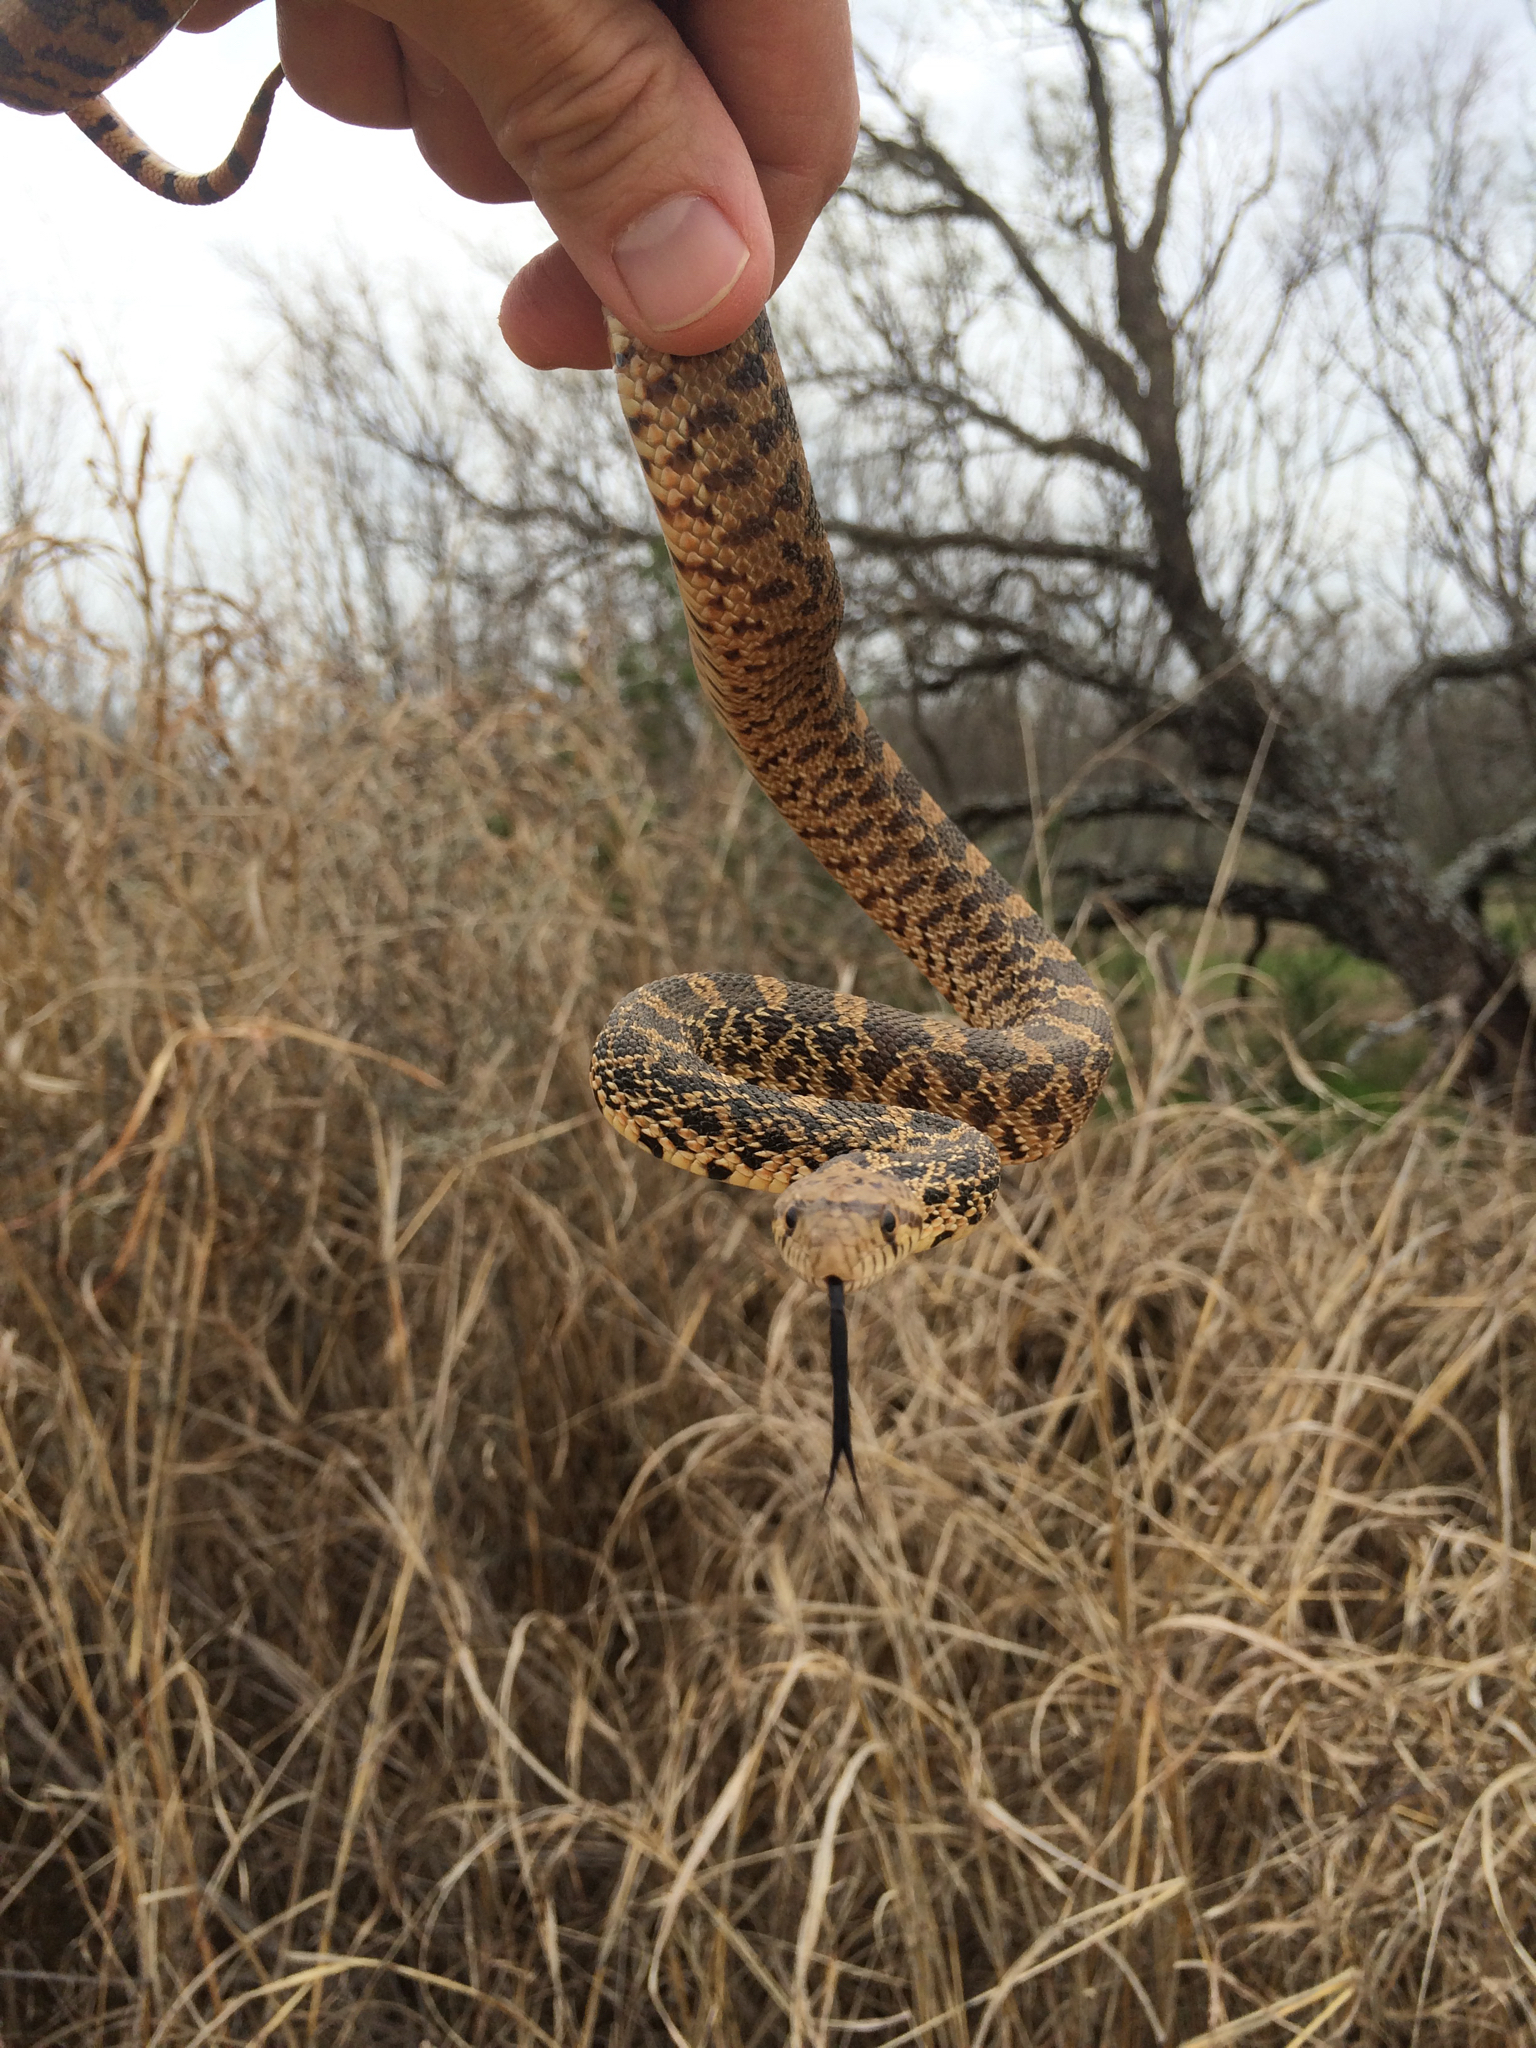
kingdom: Animalia
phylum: Chordata
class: Squamata
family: Colubridae
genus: Pituophis
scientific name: Pituophis catenifer
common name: Gopher snake
